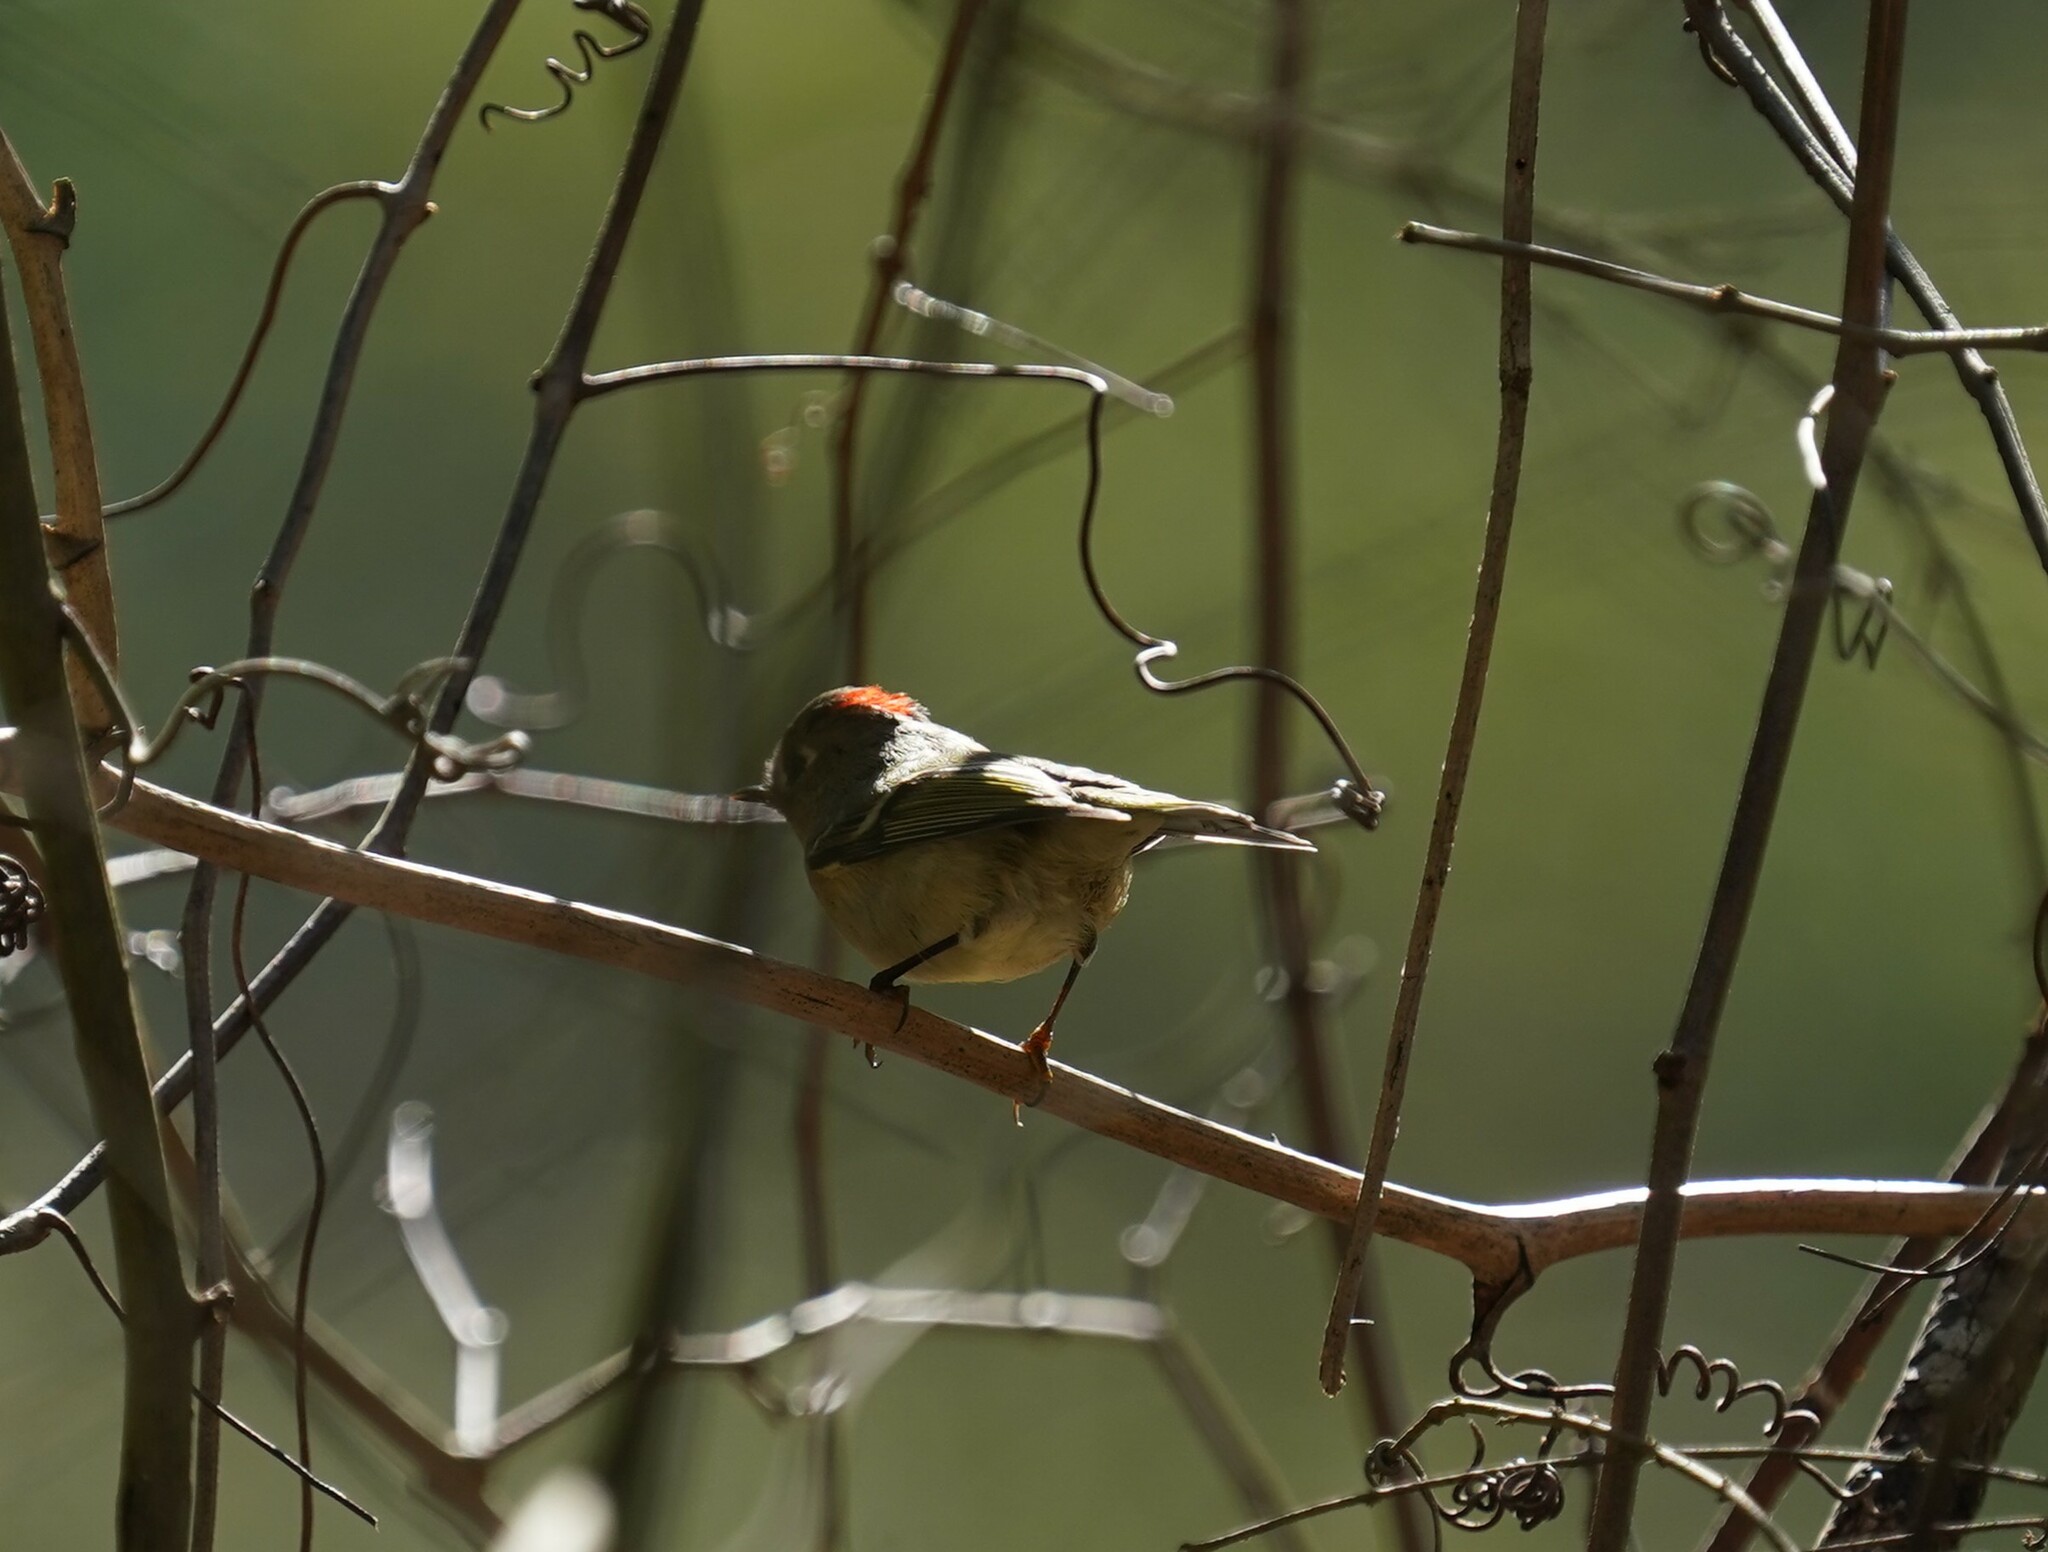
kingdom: Animalia
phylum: Chordata
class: Aves
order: Passeriformes
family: Regulidae
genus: Regulus
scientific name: Regulus calendula
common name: Ruby-crowned kinglet
